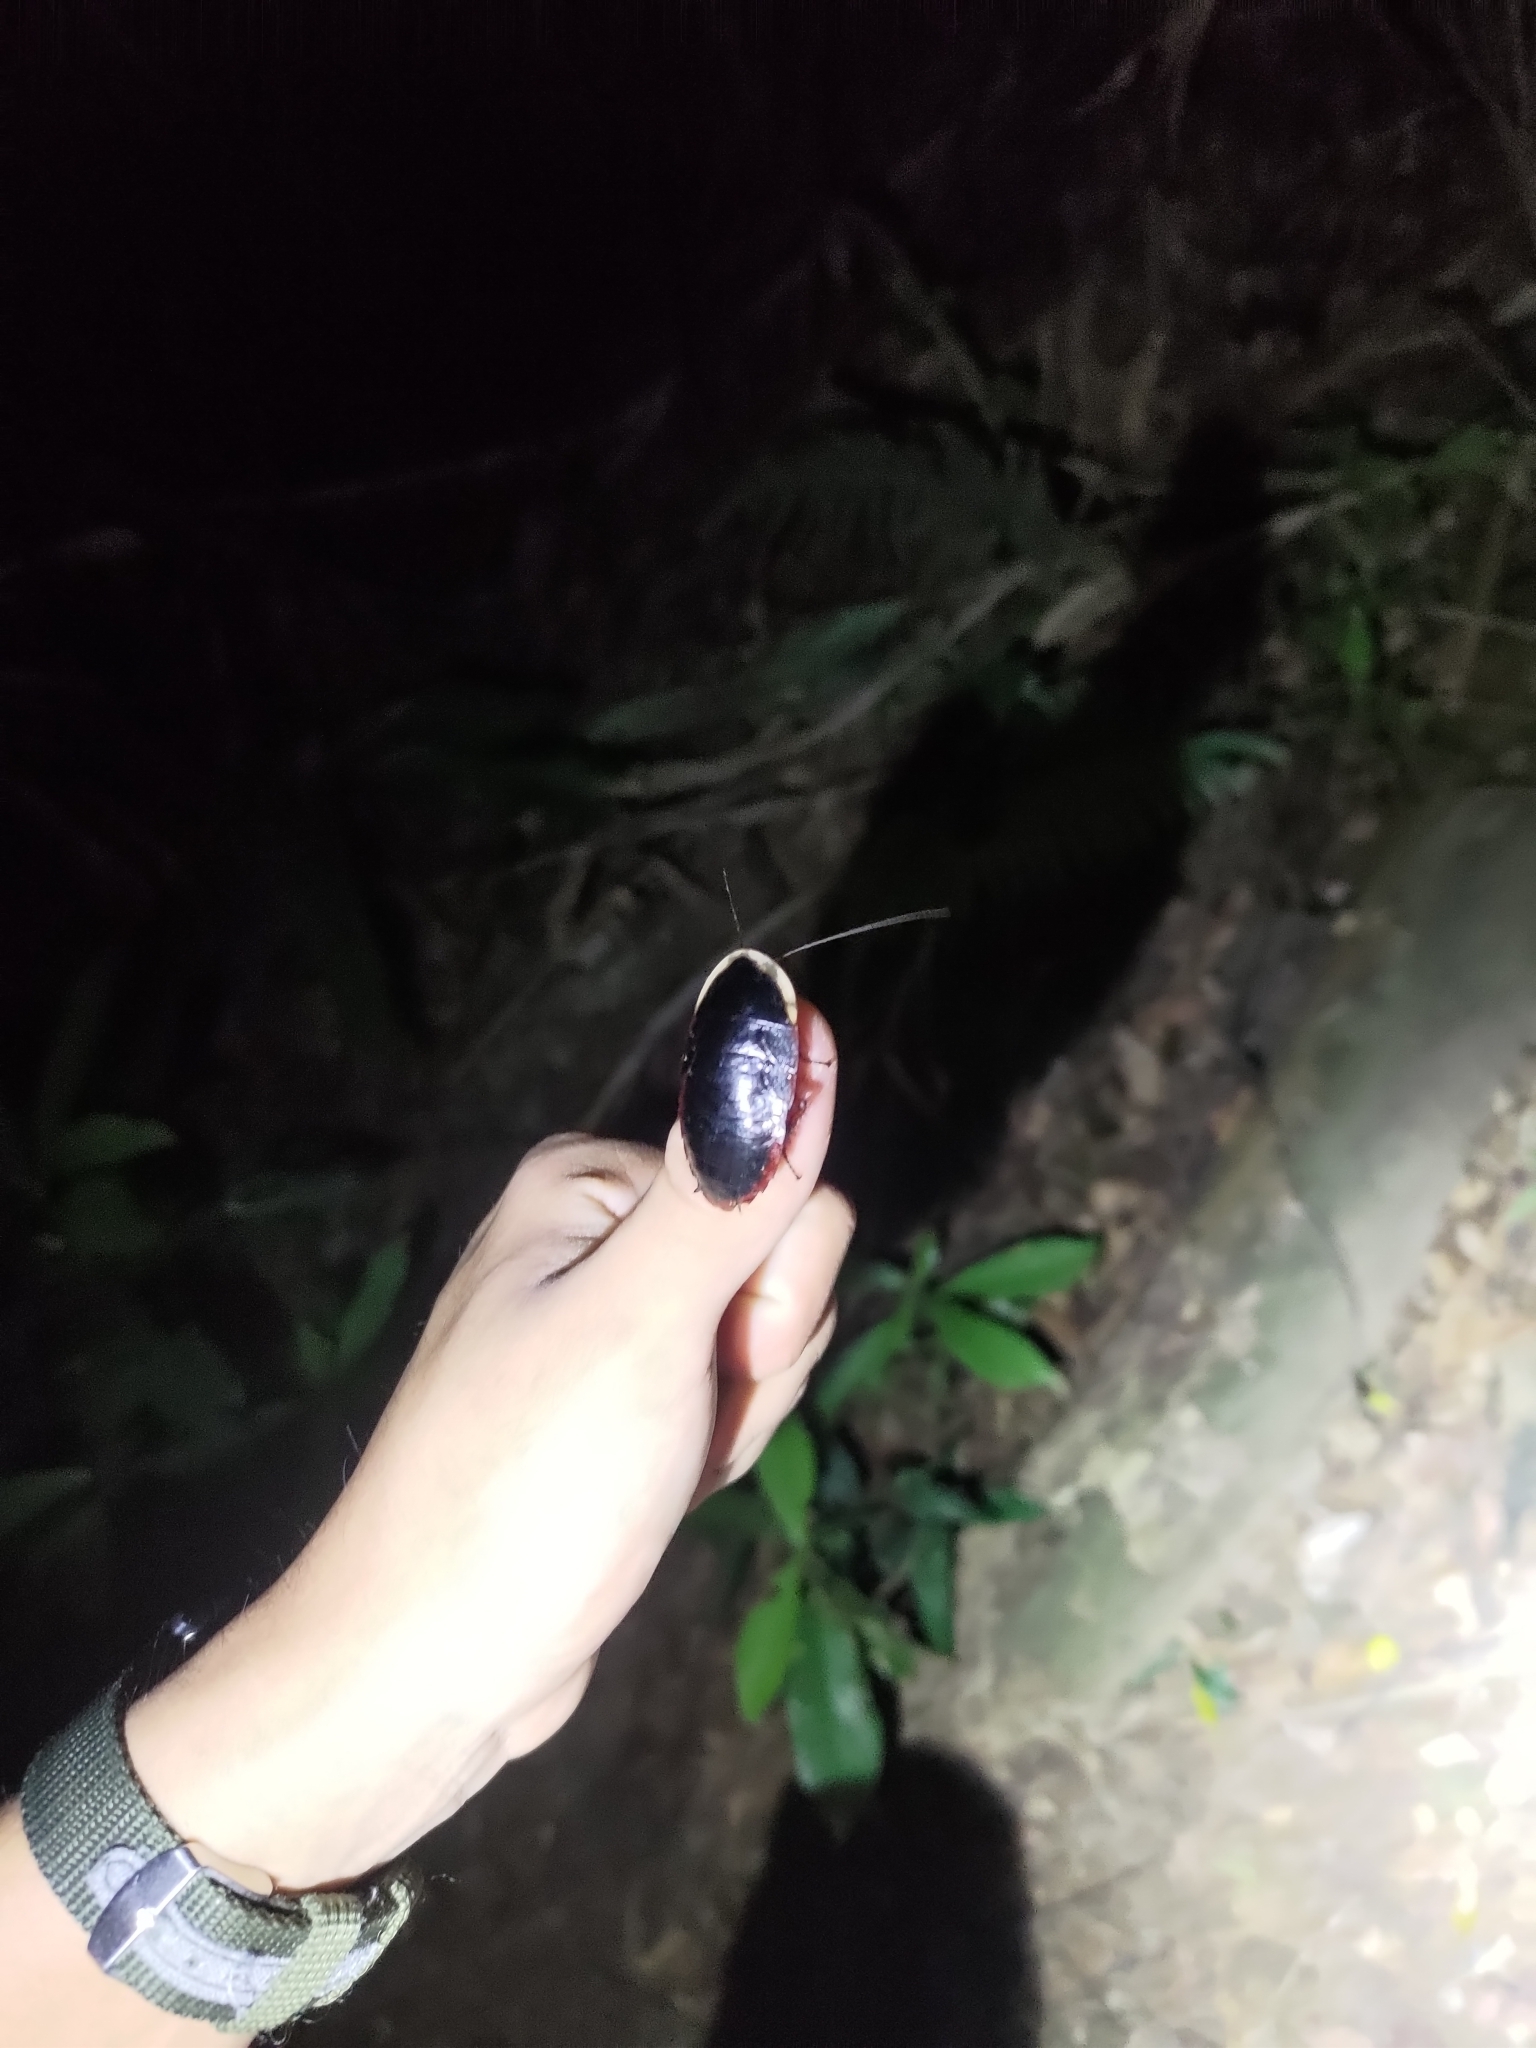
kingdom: Animalia
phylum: Arthropoda
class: Insecta
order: Blattodea
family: Blaberidae
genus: Opisthoplatia
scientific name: Opisthoplatia orientalis
